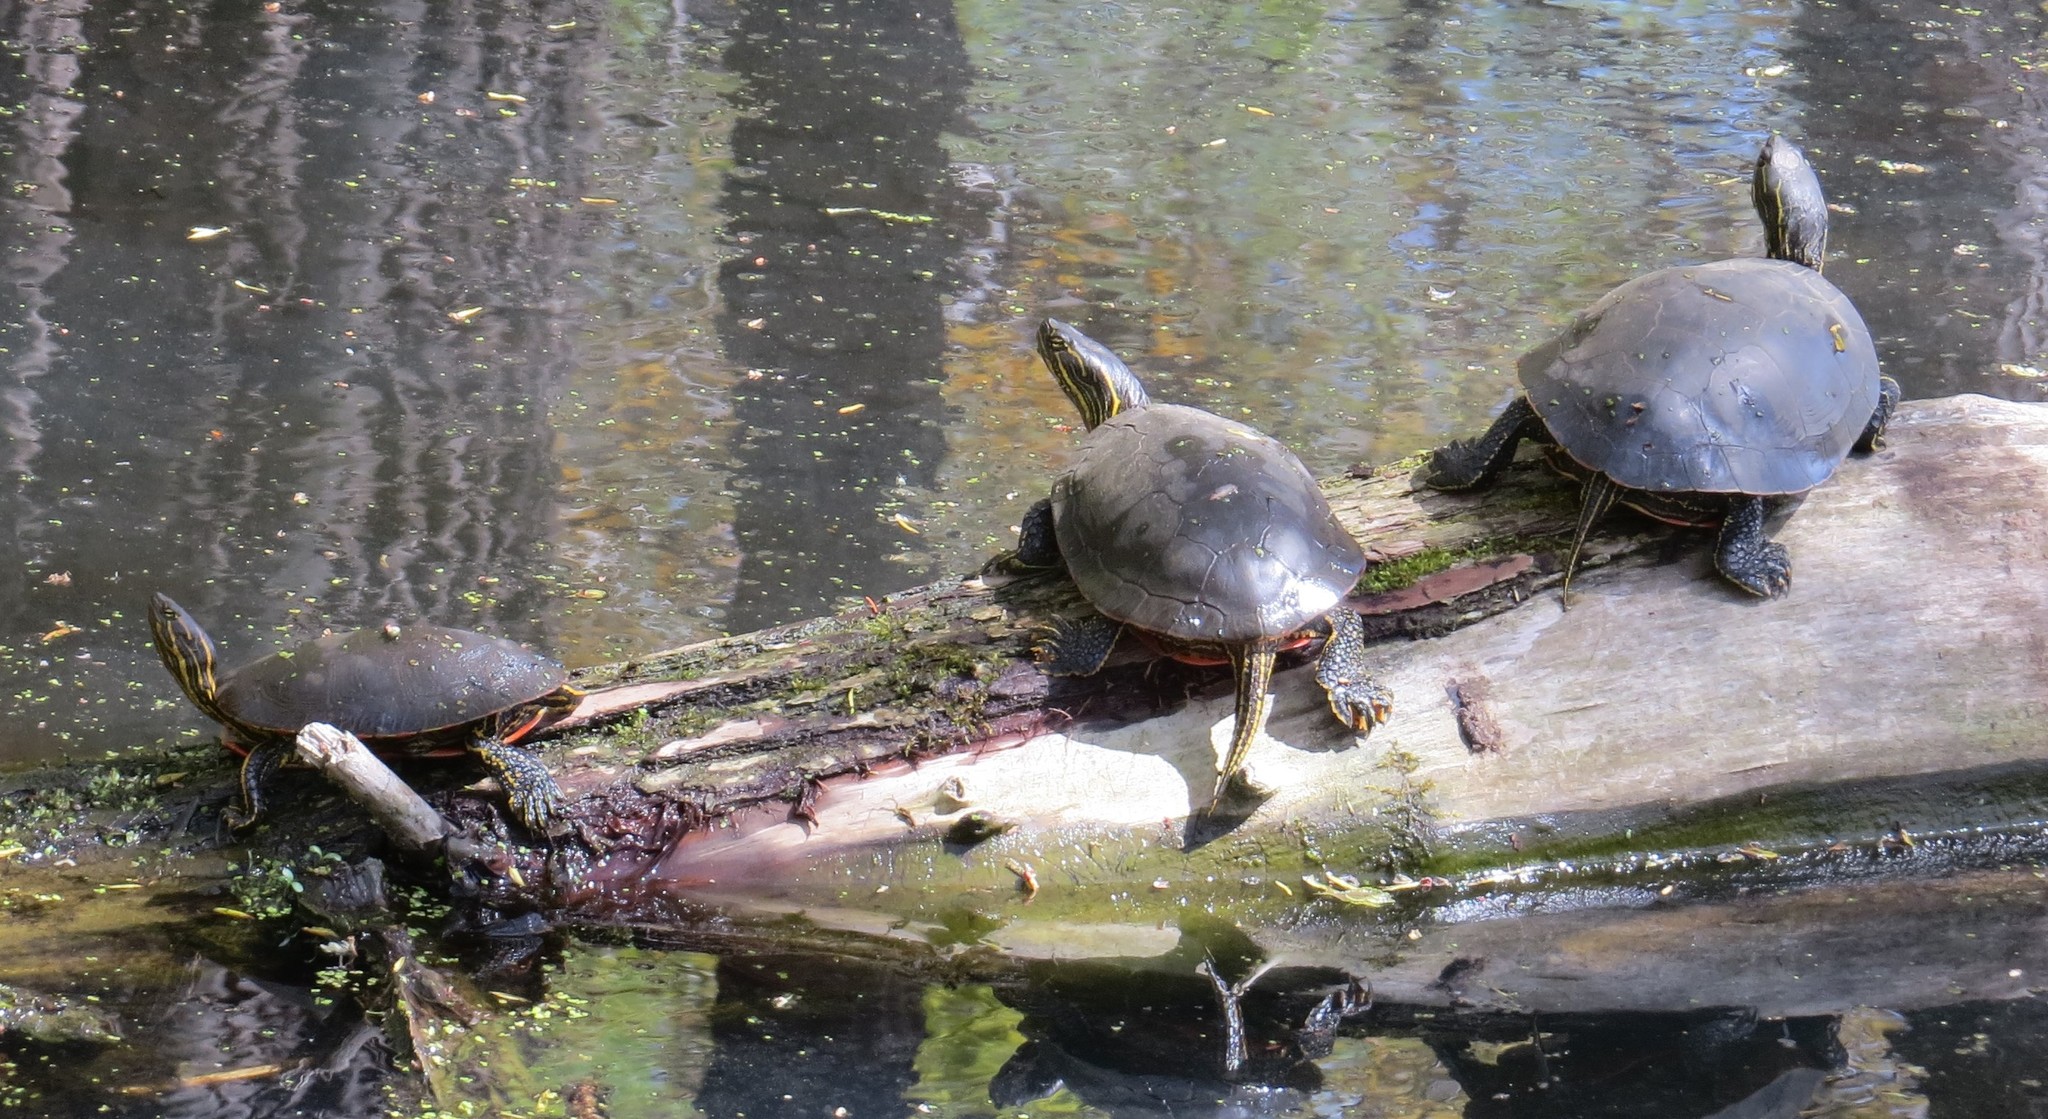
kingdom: Animalia
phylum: Chordata
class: Testudines
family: Emydidae
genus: Chrysemys
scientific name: Chrysemys picta
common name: Painted turtle
